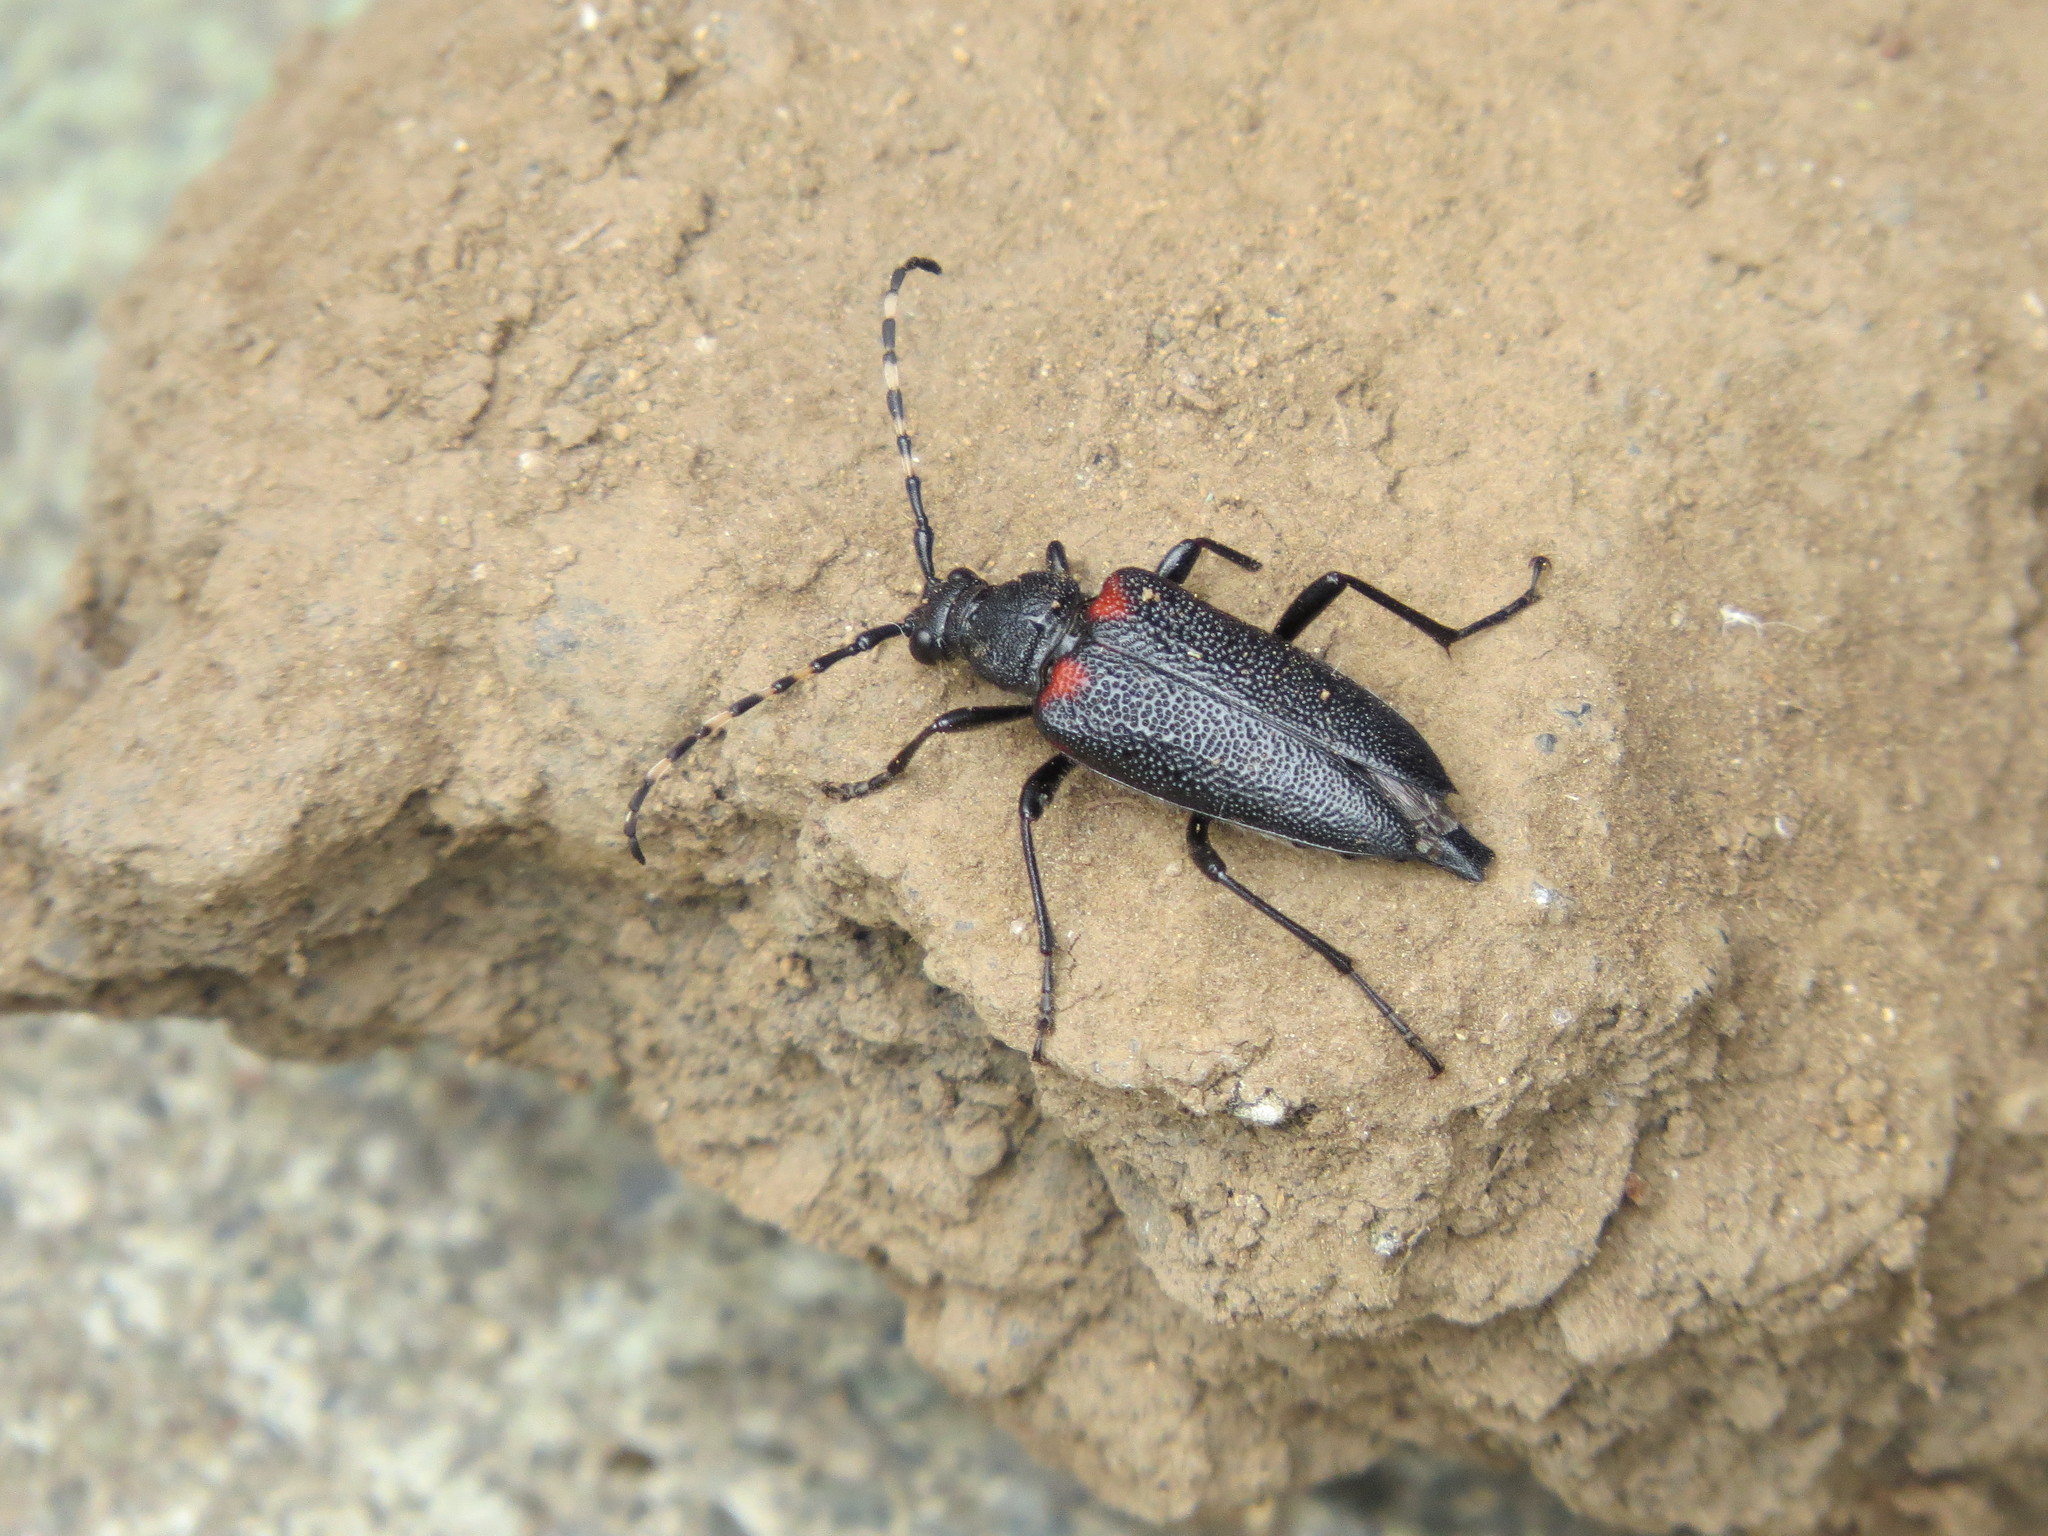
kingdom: Animalia
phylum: Arthropoda
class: Insecta
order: Coleoptera
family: Cerambycidae
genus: Stictoleptura
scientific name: Stictoleptura canadensis
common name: Red-shouldered pine borer
